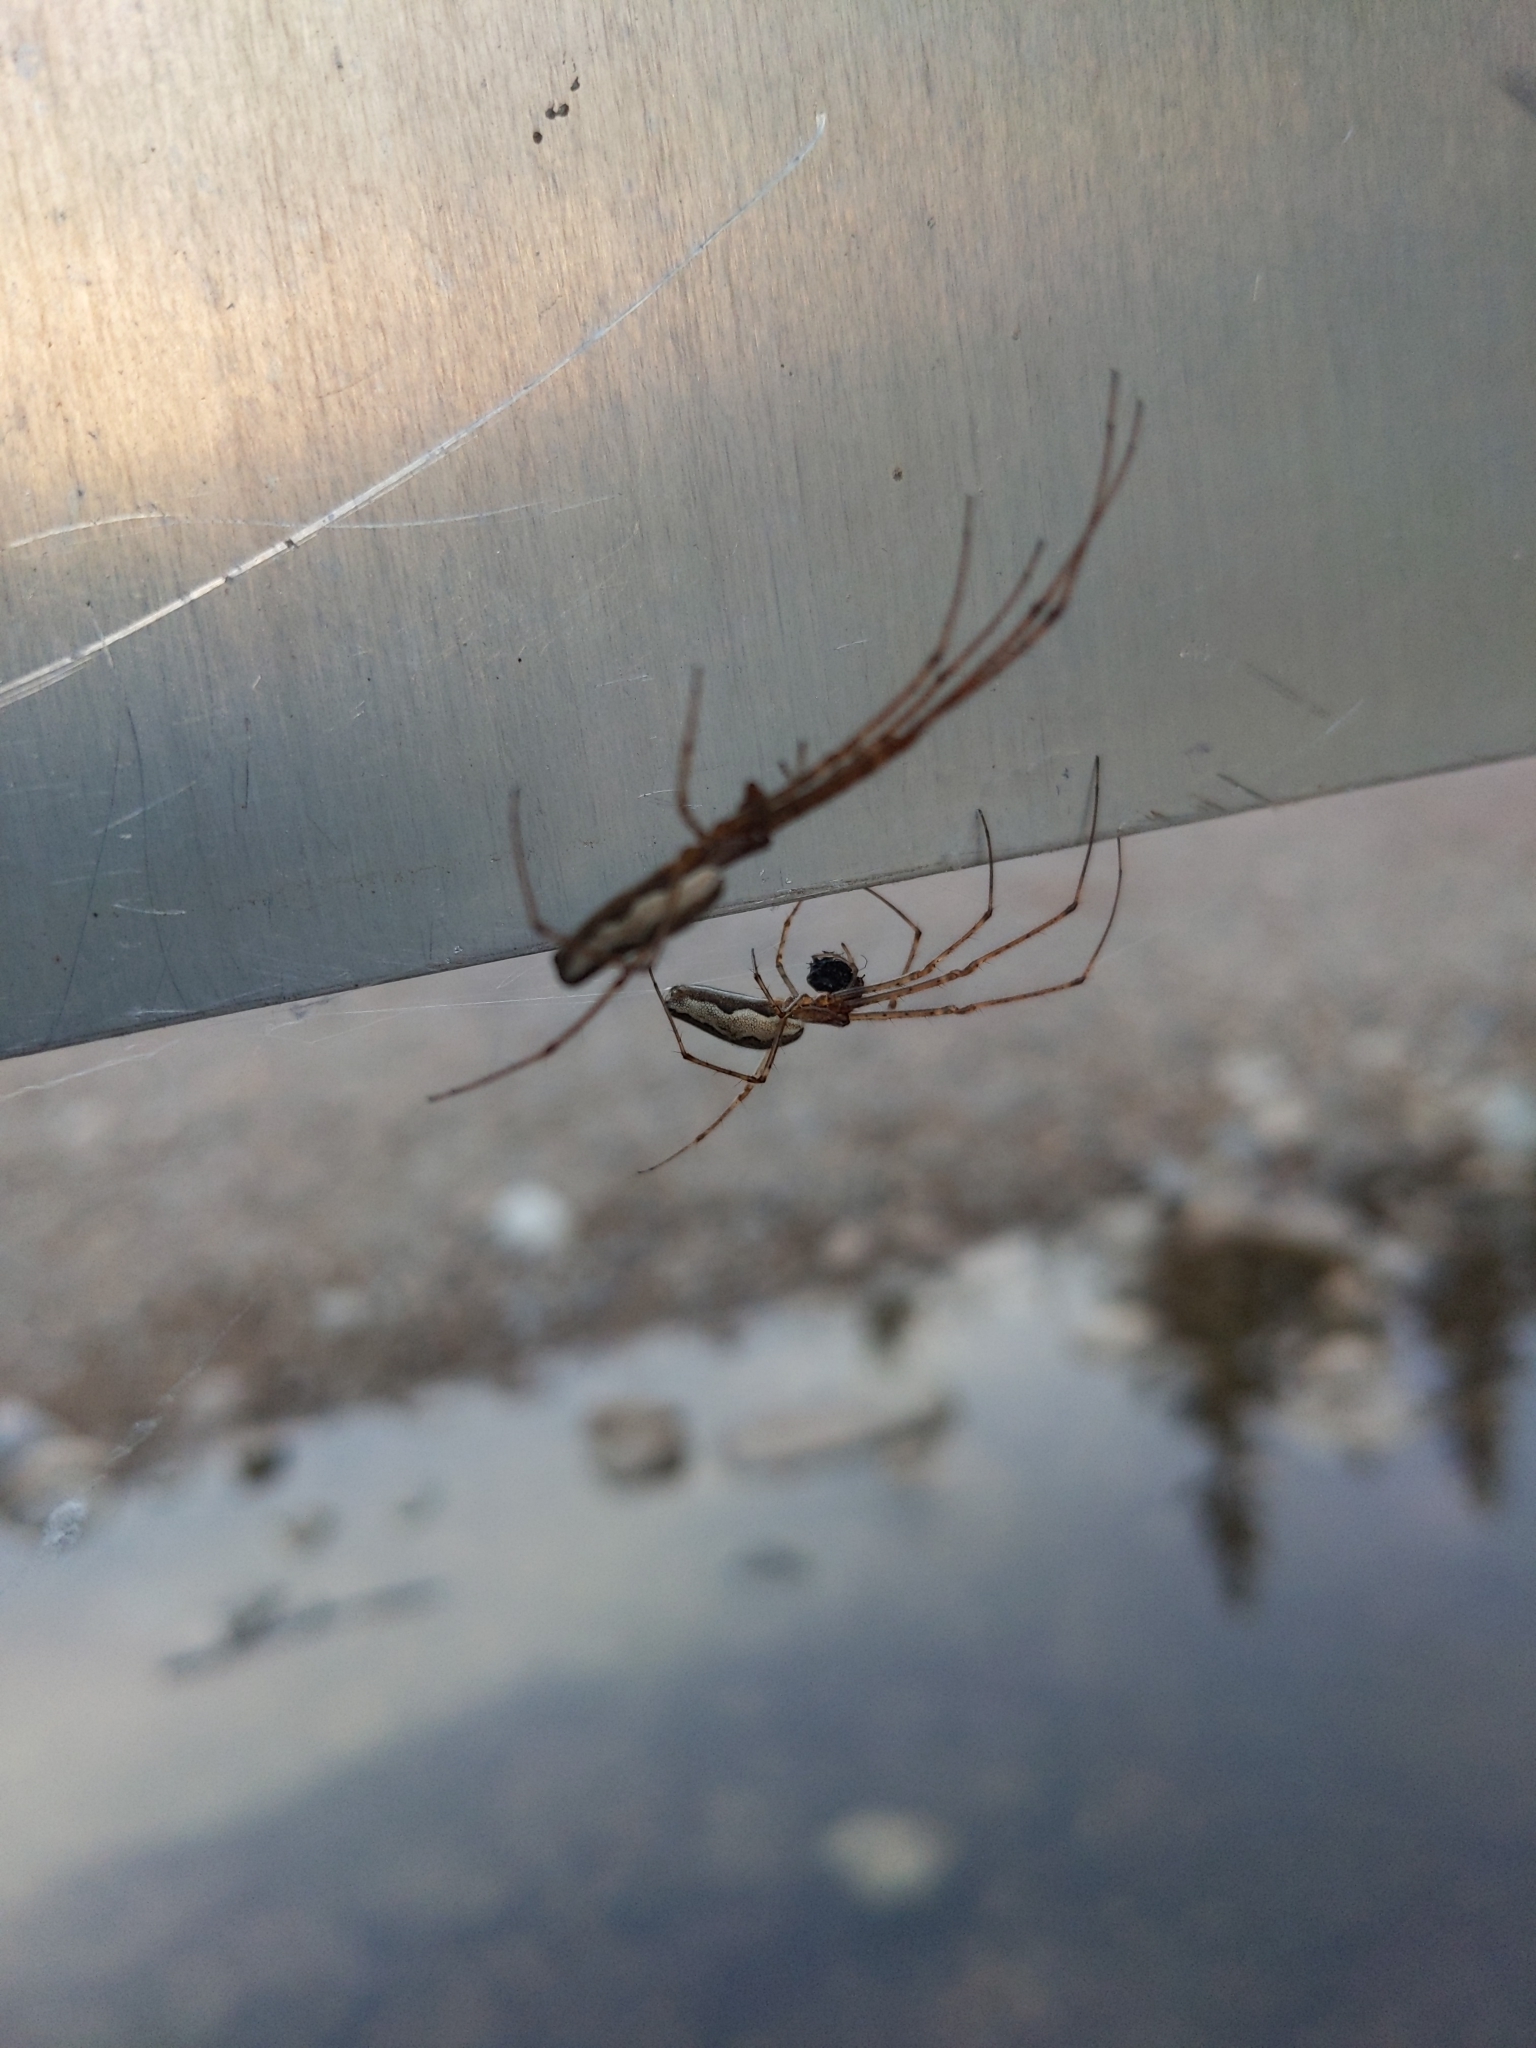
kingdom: Animalia
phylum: Arthropoda
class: Arachnida
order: Araneae
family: Tetragnathidae
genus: Tetragnatha
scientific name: Tetragnatha
